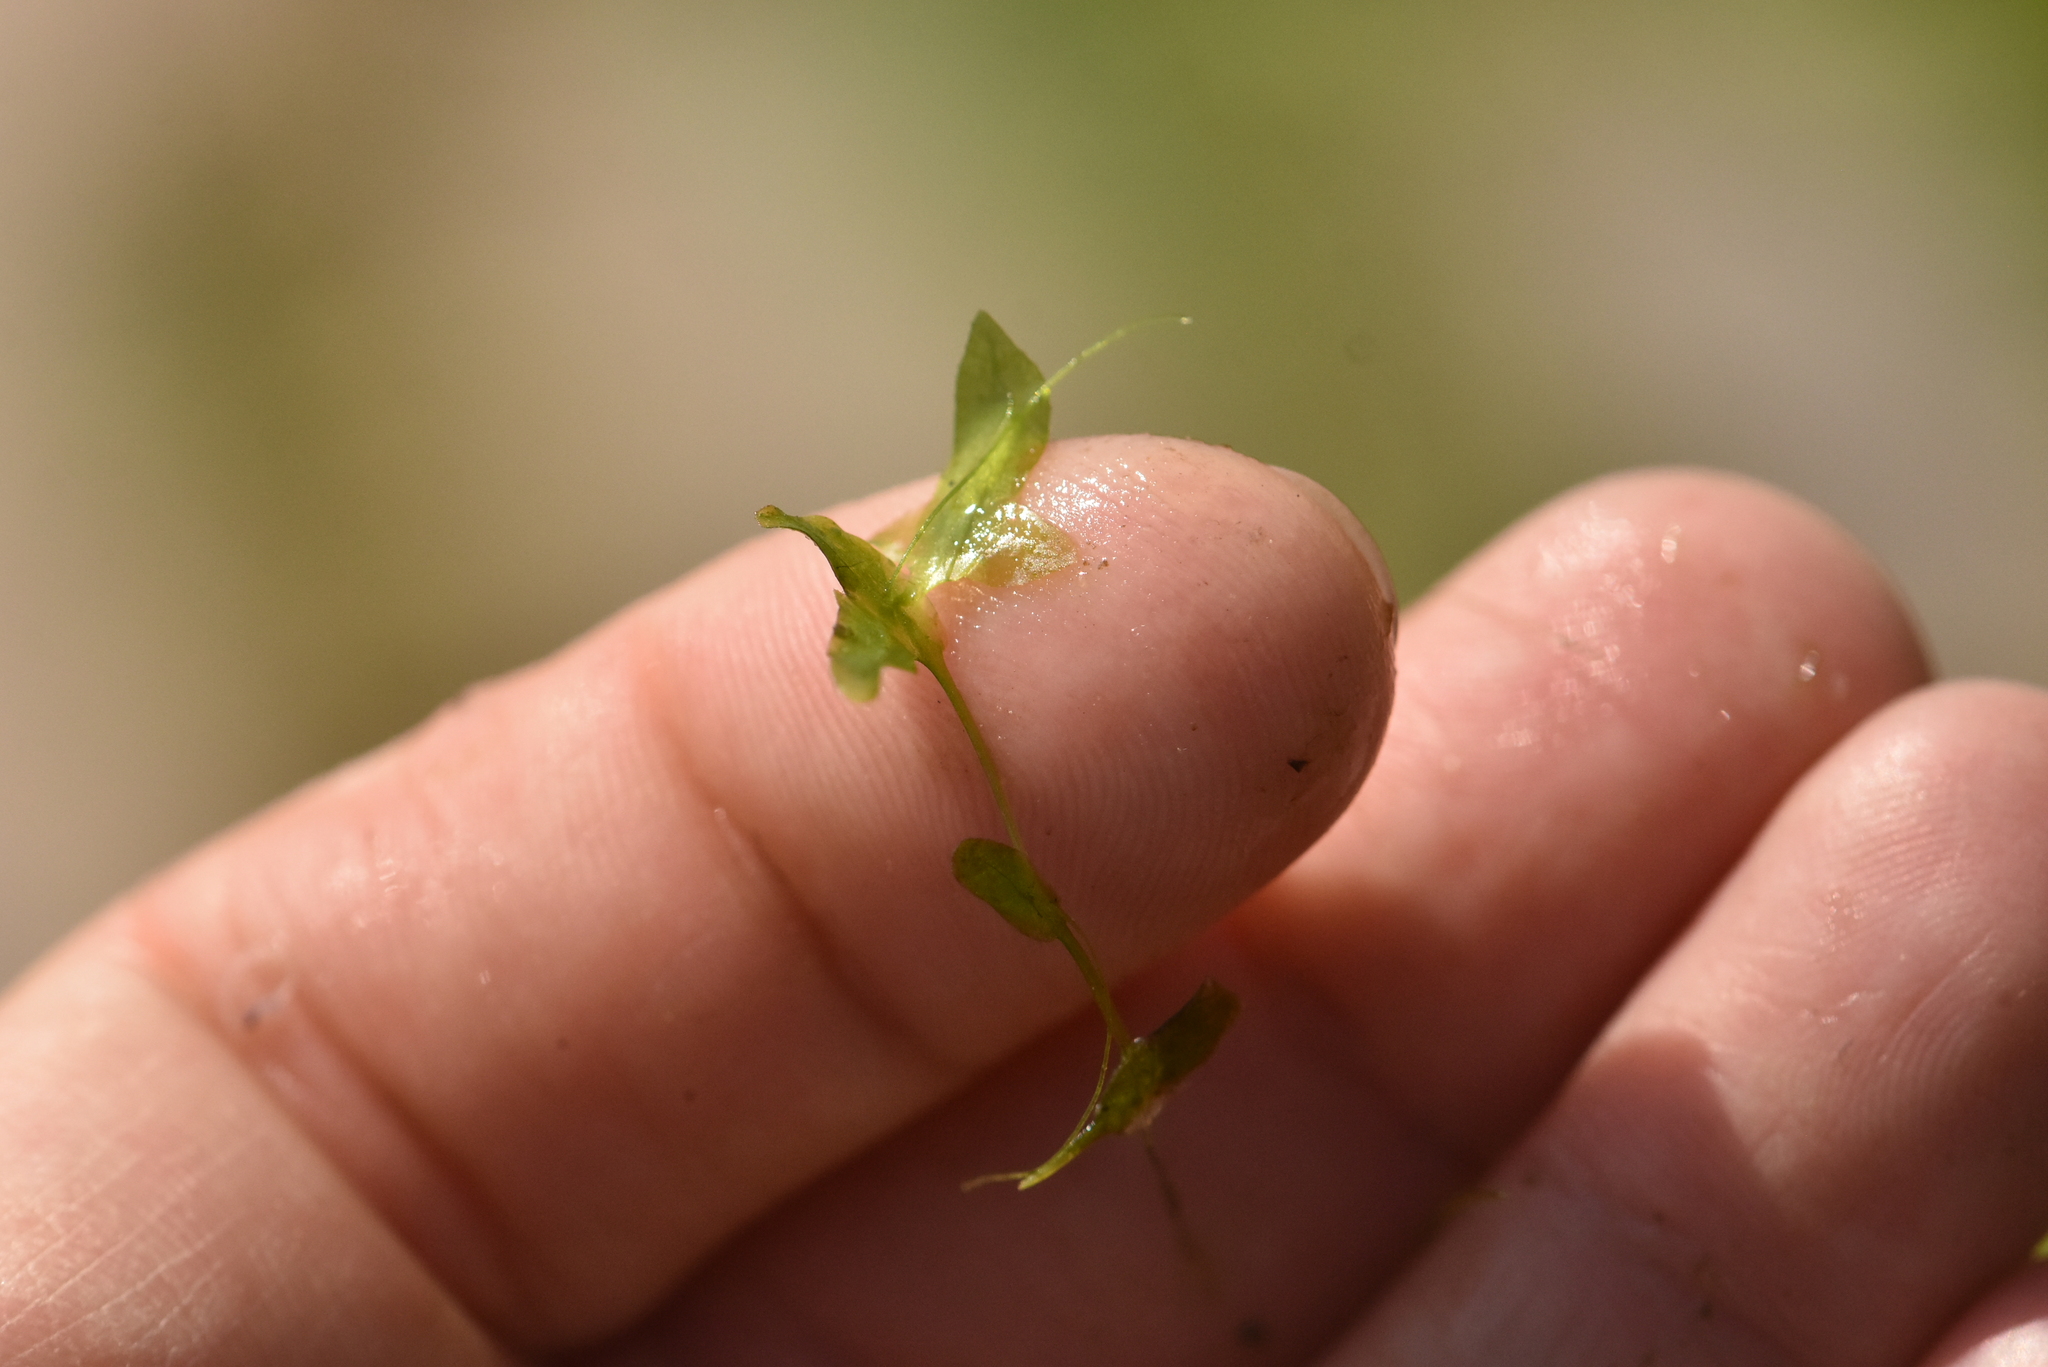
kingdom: Plantae
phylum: Tracheophyta
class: Liliopsida
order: Alismatales
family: Araceae
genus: Lemna
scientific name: Lemna trisulca
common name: Ivy-leaved duckweed
